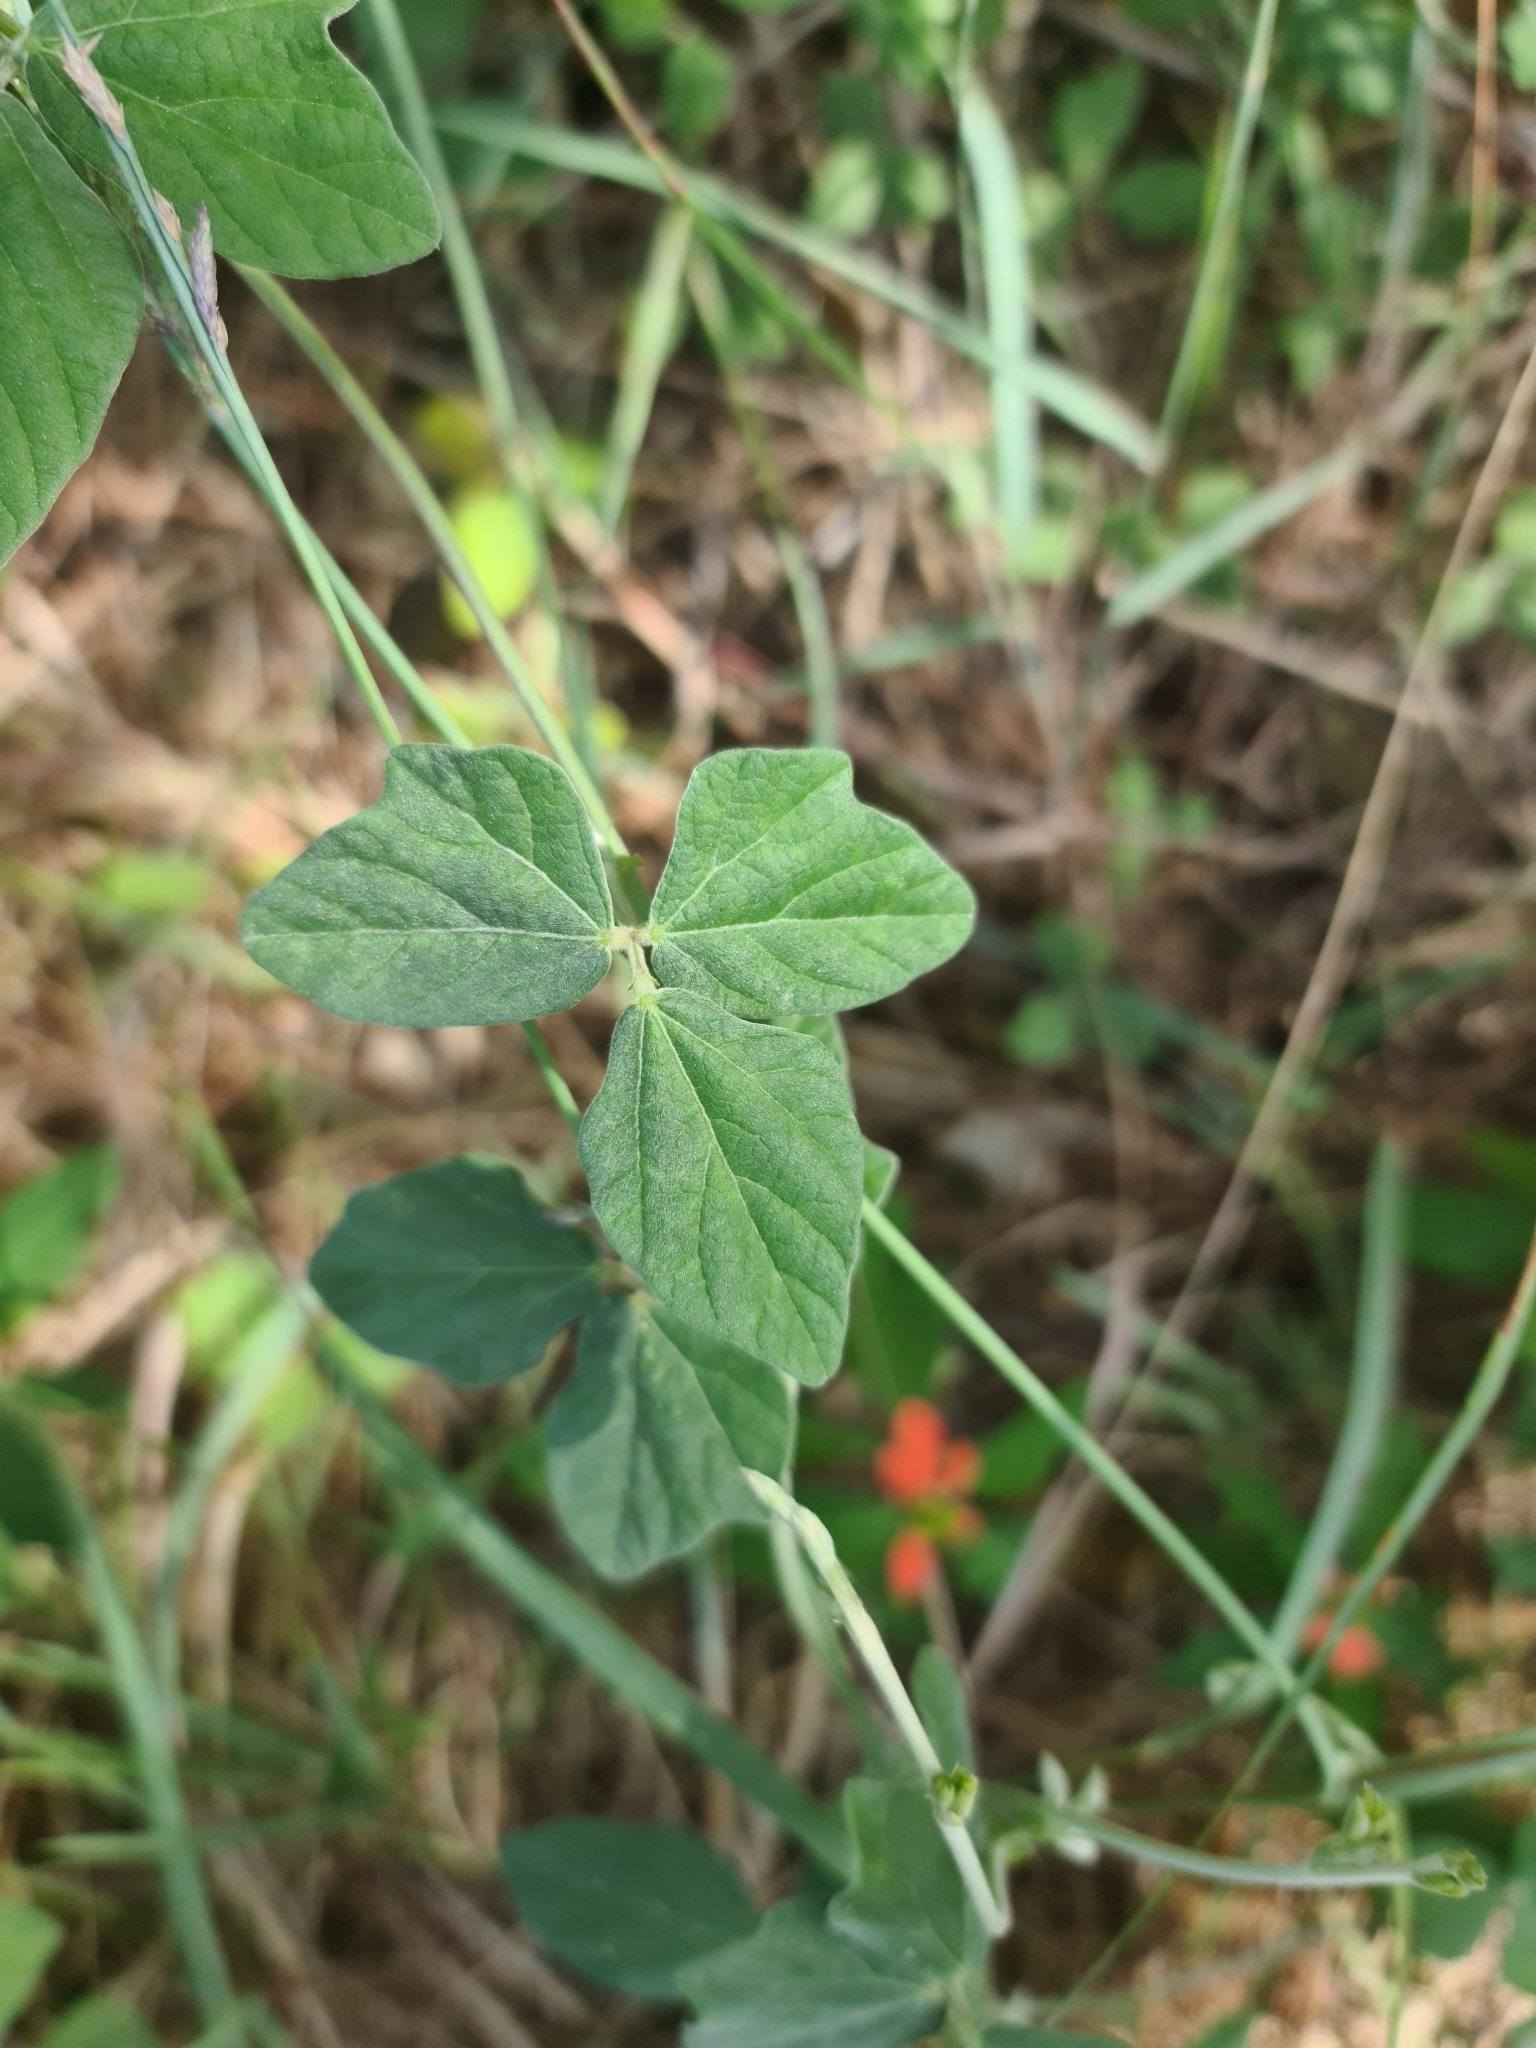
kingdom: Plantae
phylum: Tracheophyta
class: Magnoliopsida
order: Fabales
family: Fabaceae
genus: Macroptilium
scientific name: Macroptilium atropurpureum
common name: Purple bushbean
